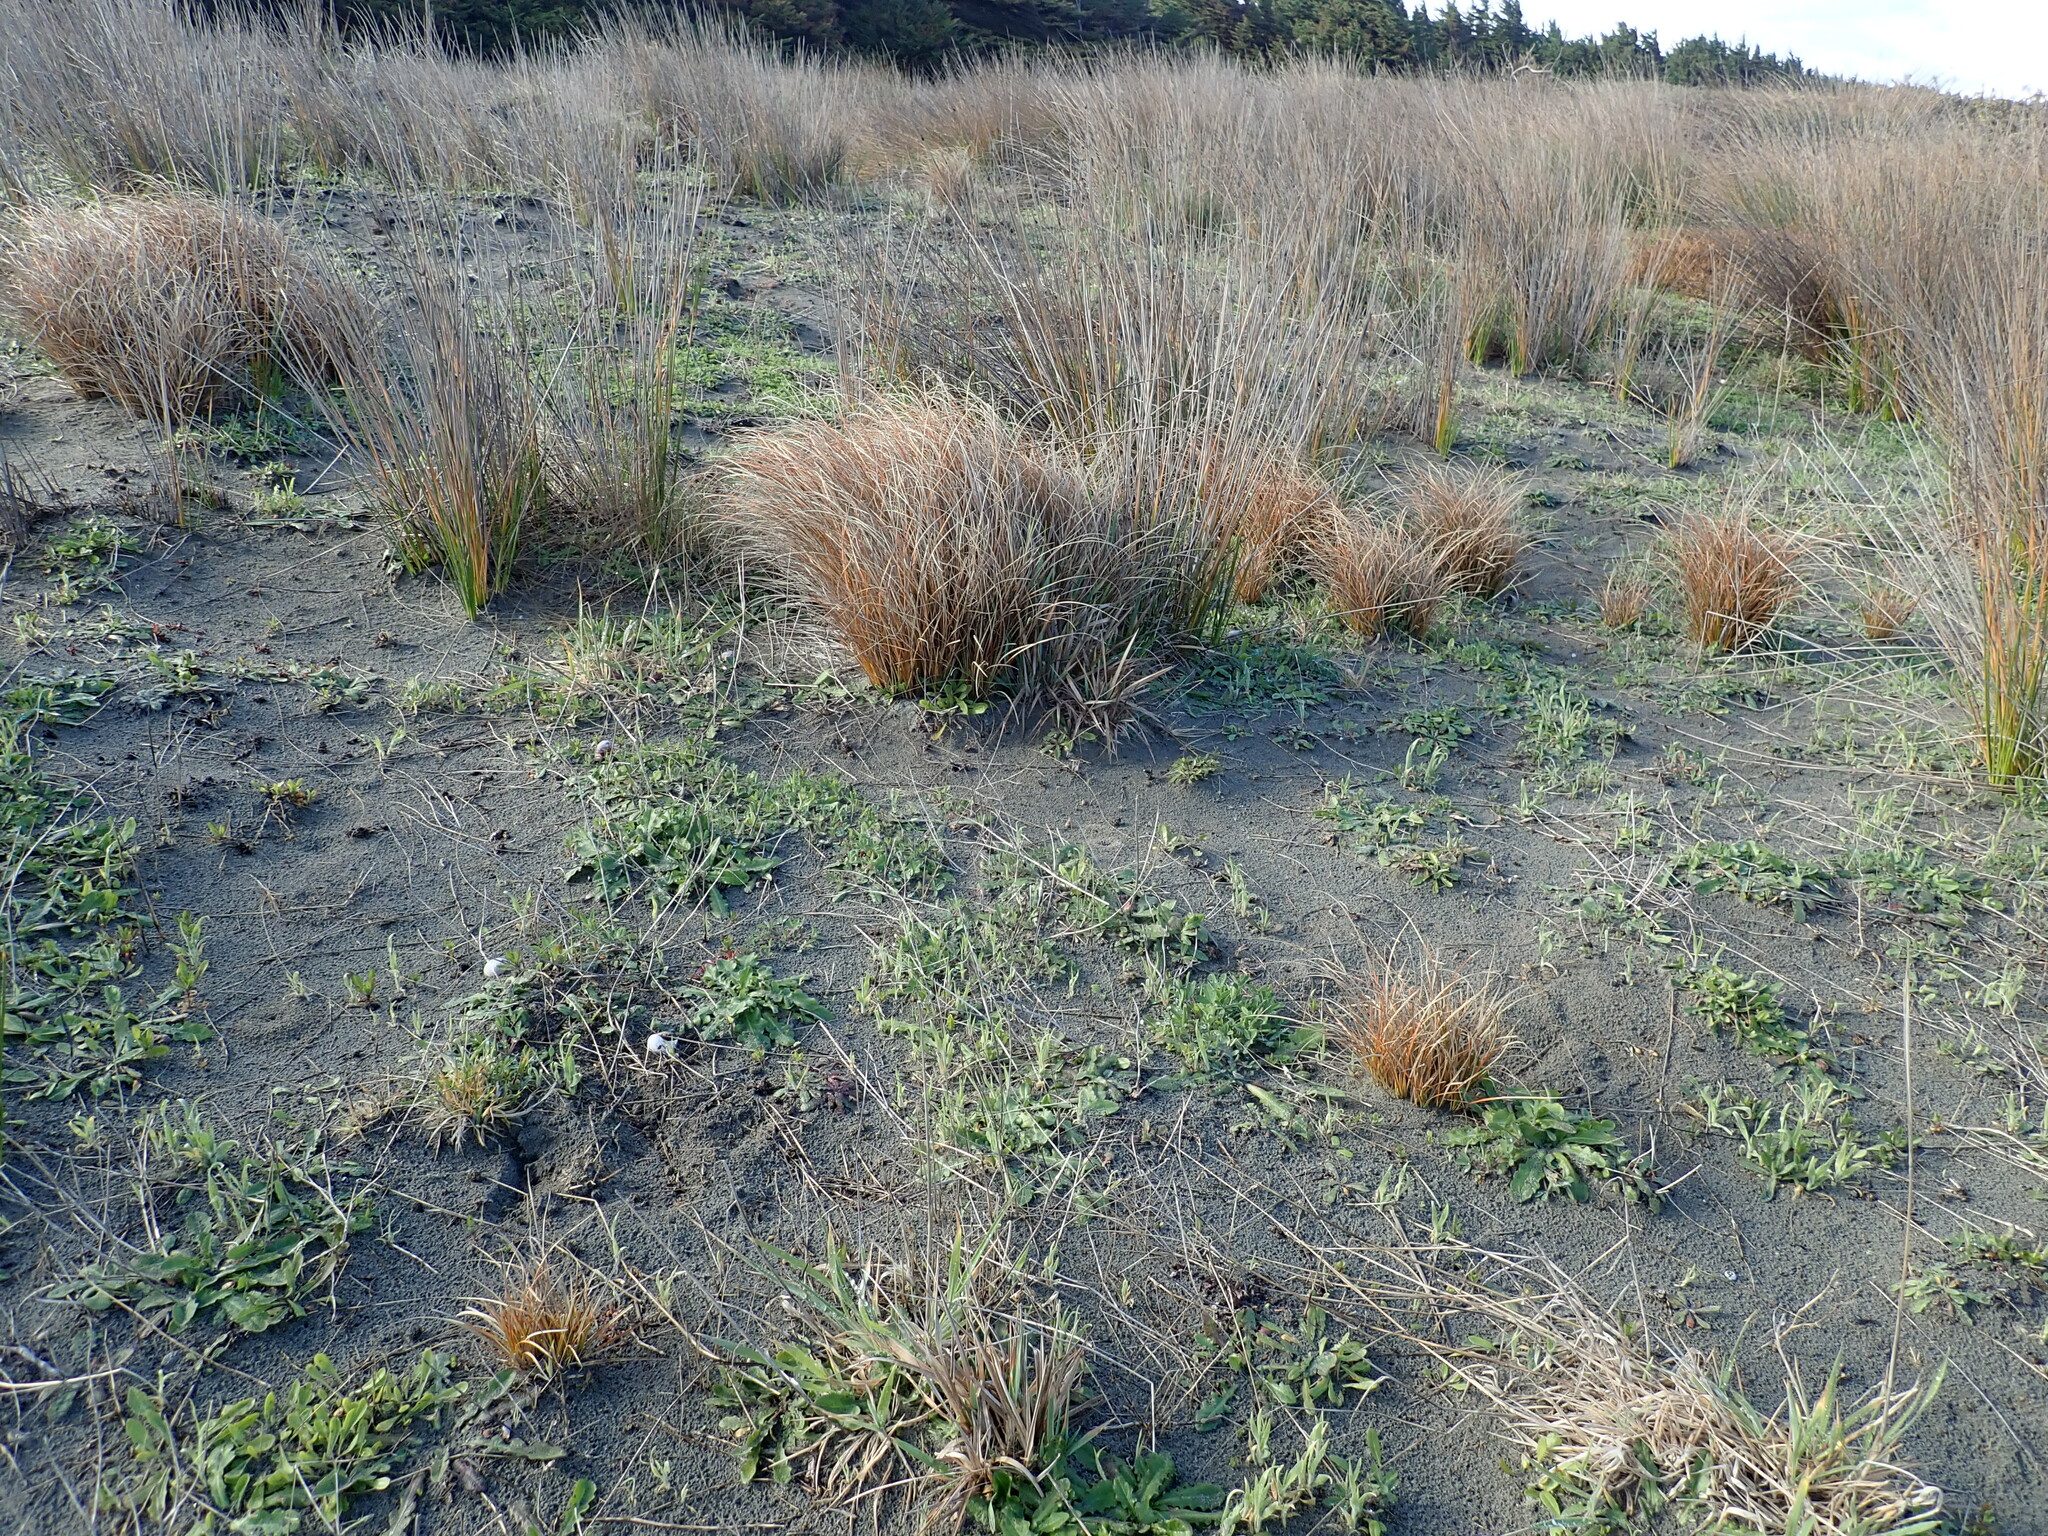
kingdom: Plantae
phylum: Tracheophyta
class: Liliopsida
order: Poales
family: Cyperaceae
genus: Carex
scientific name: Carex testacea
